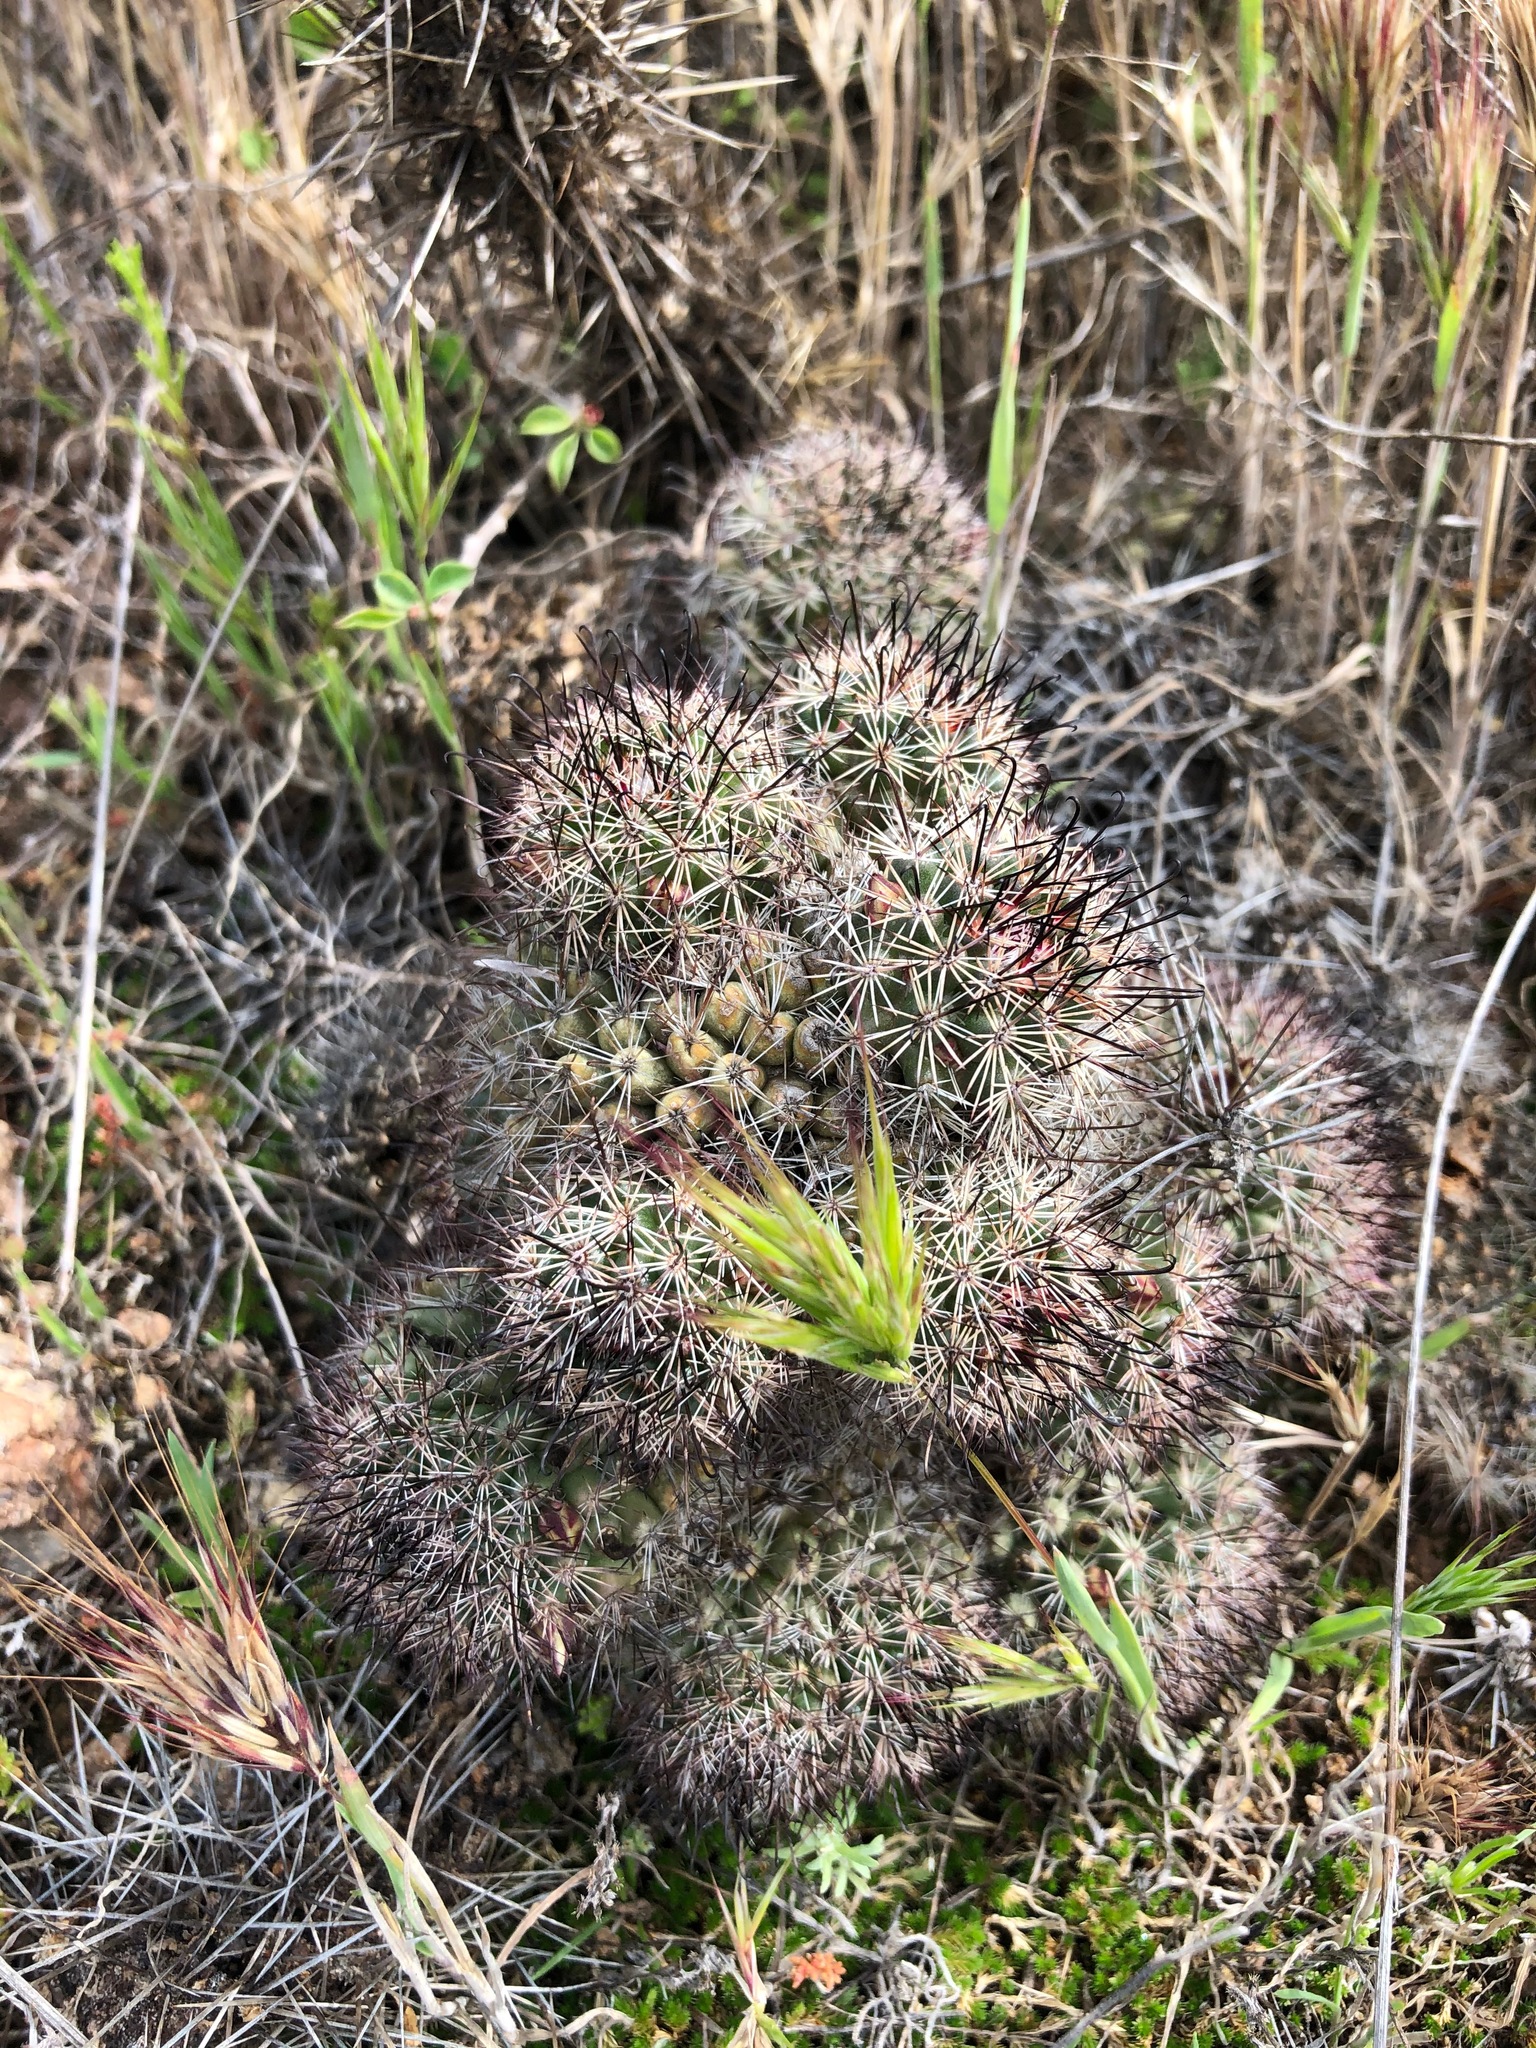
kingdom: Plantae
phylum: Tracheophyta
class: Magnoliopsida
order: Caryophyllales
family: Cactaceae
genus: Cochemiea
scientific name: Cochemiea dioica
